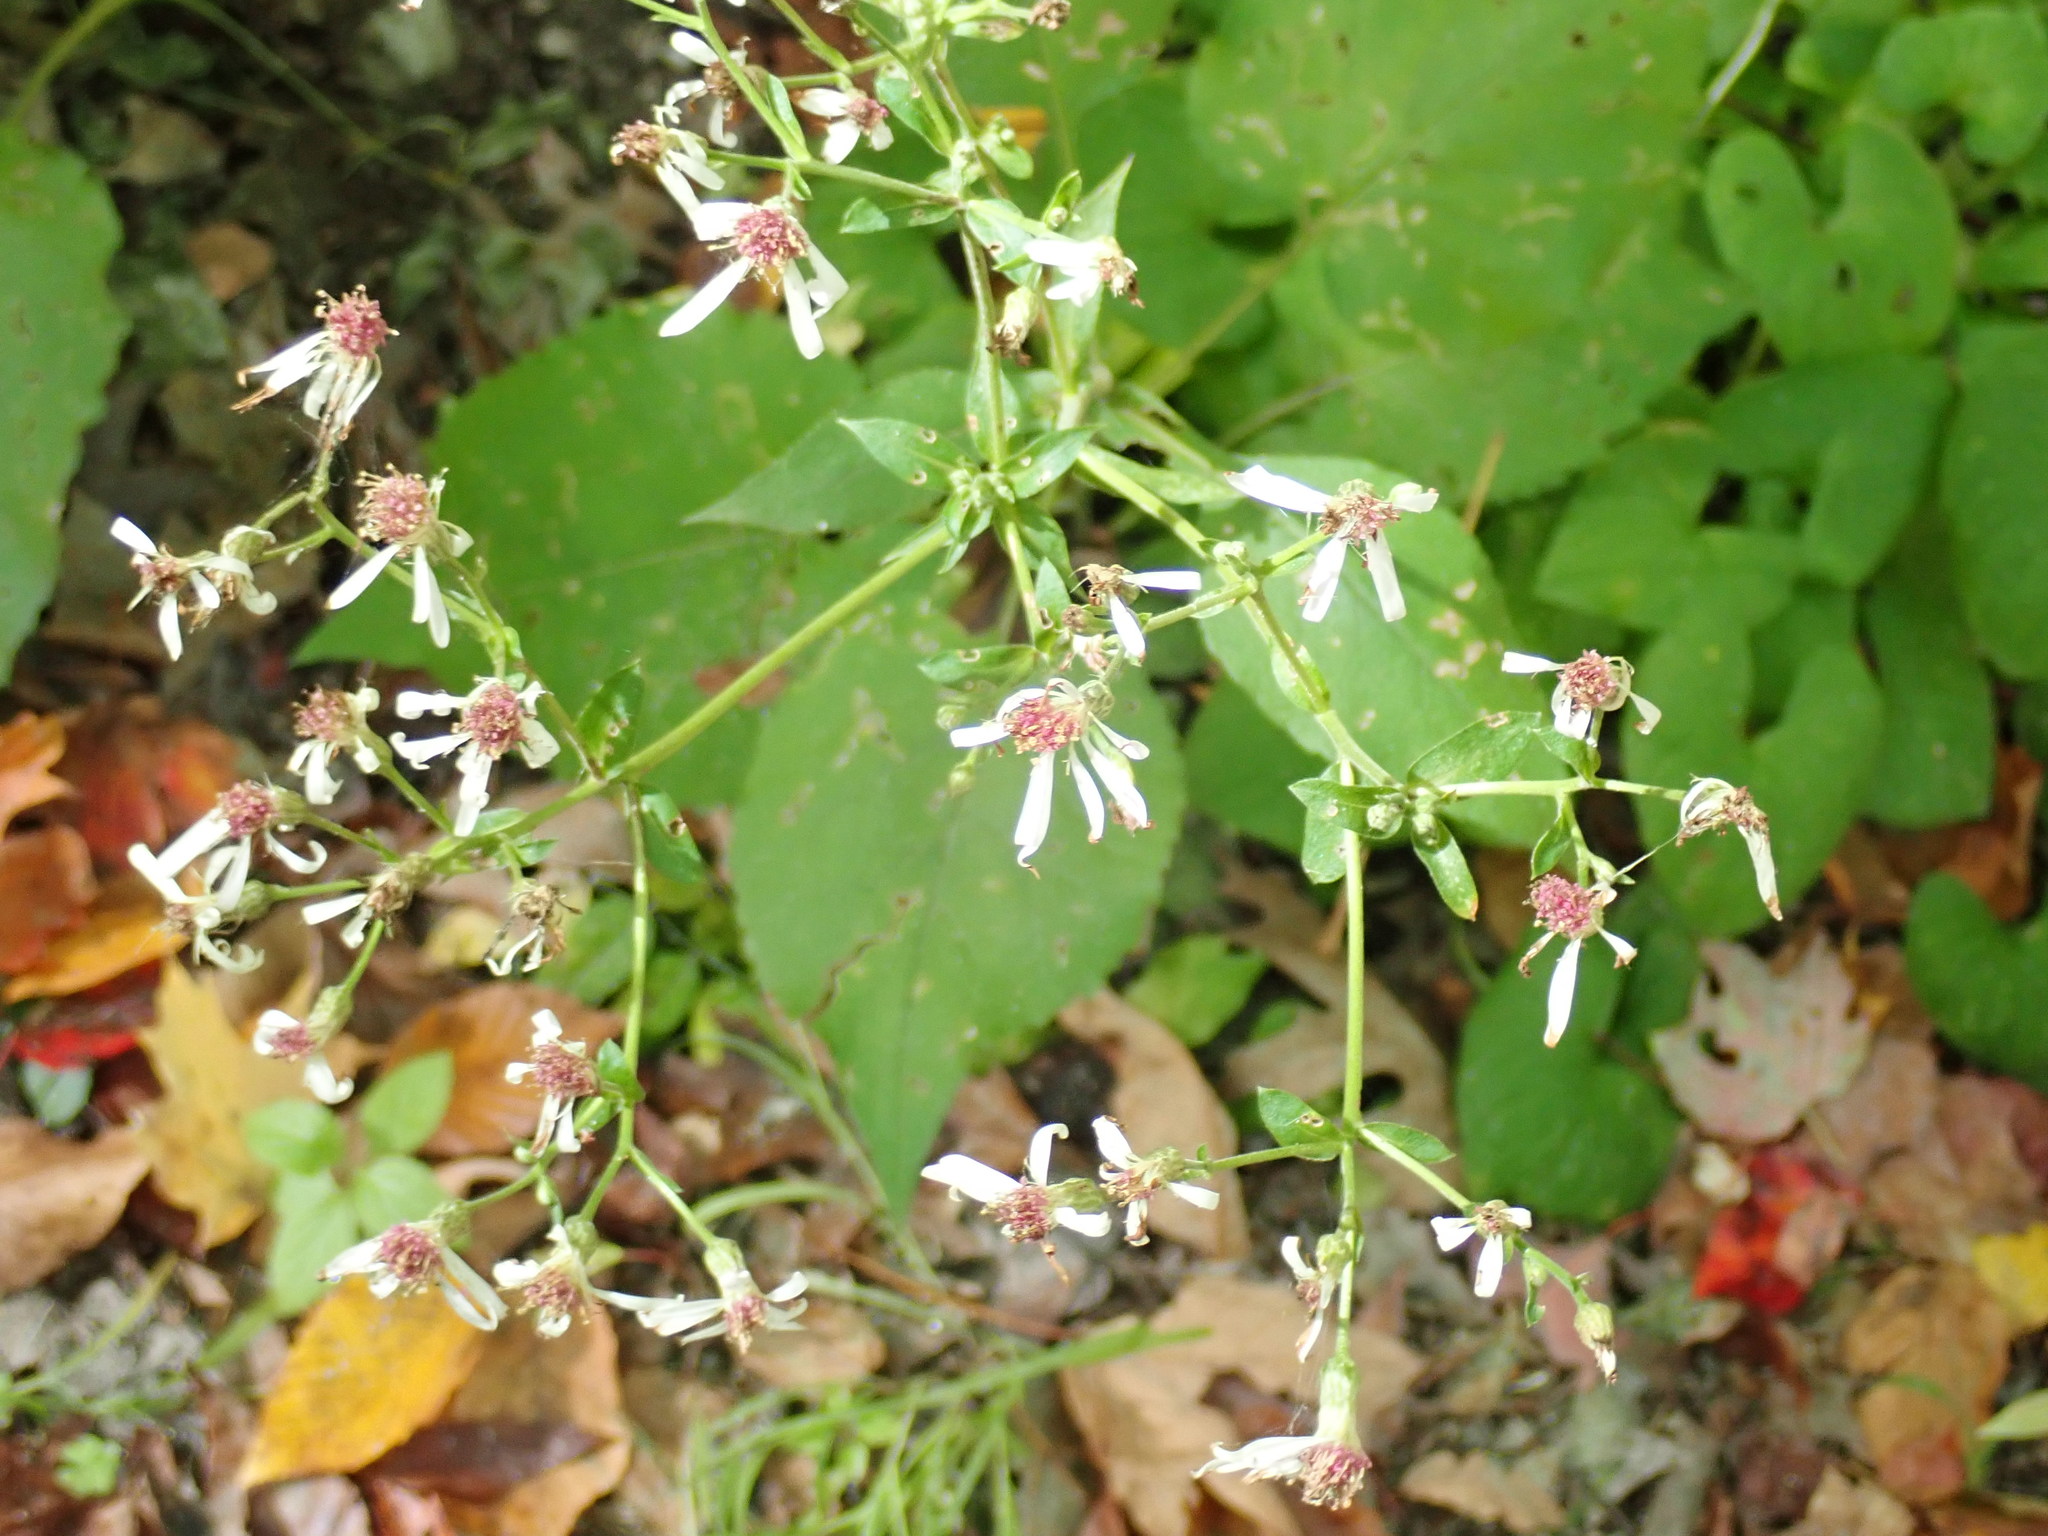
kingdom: Plantae
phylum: Tracheophyta
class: Magnoliopsida
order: Asterales
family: Asteraceae
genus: Eurybia
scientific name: Eurybia macrophylla
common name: Big-leaved aster
